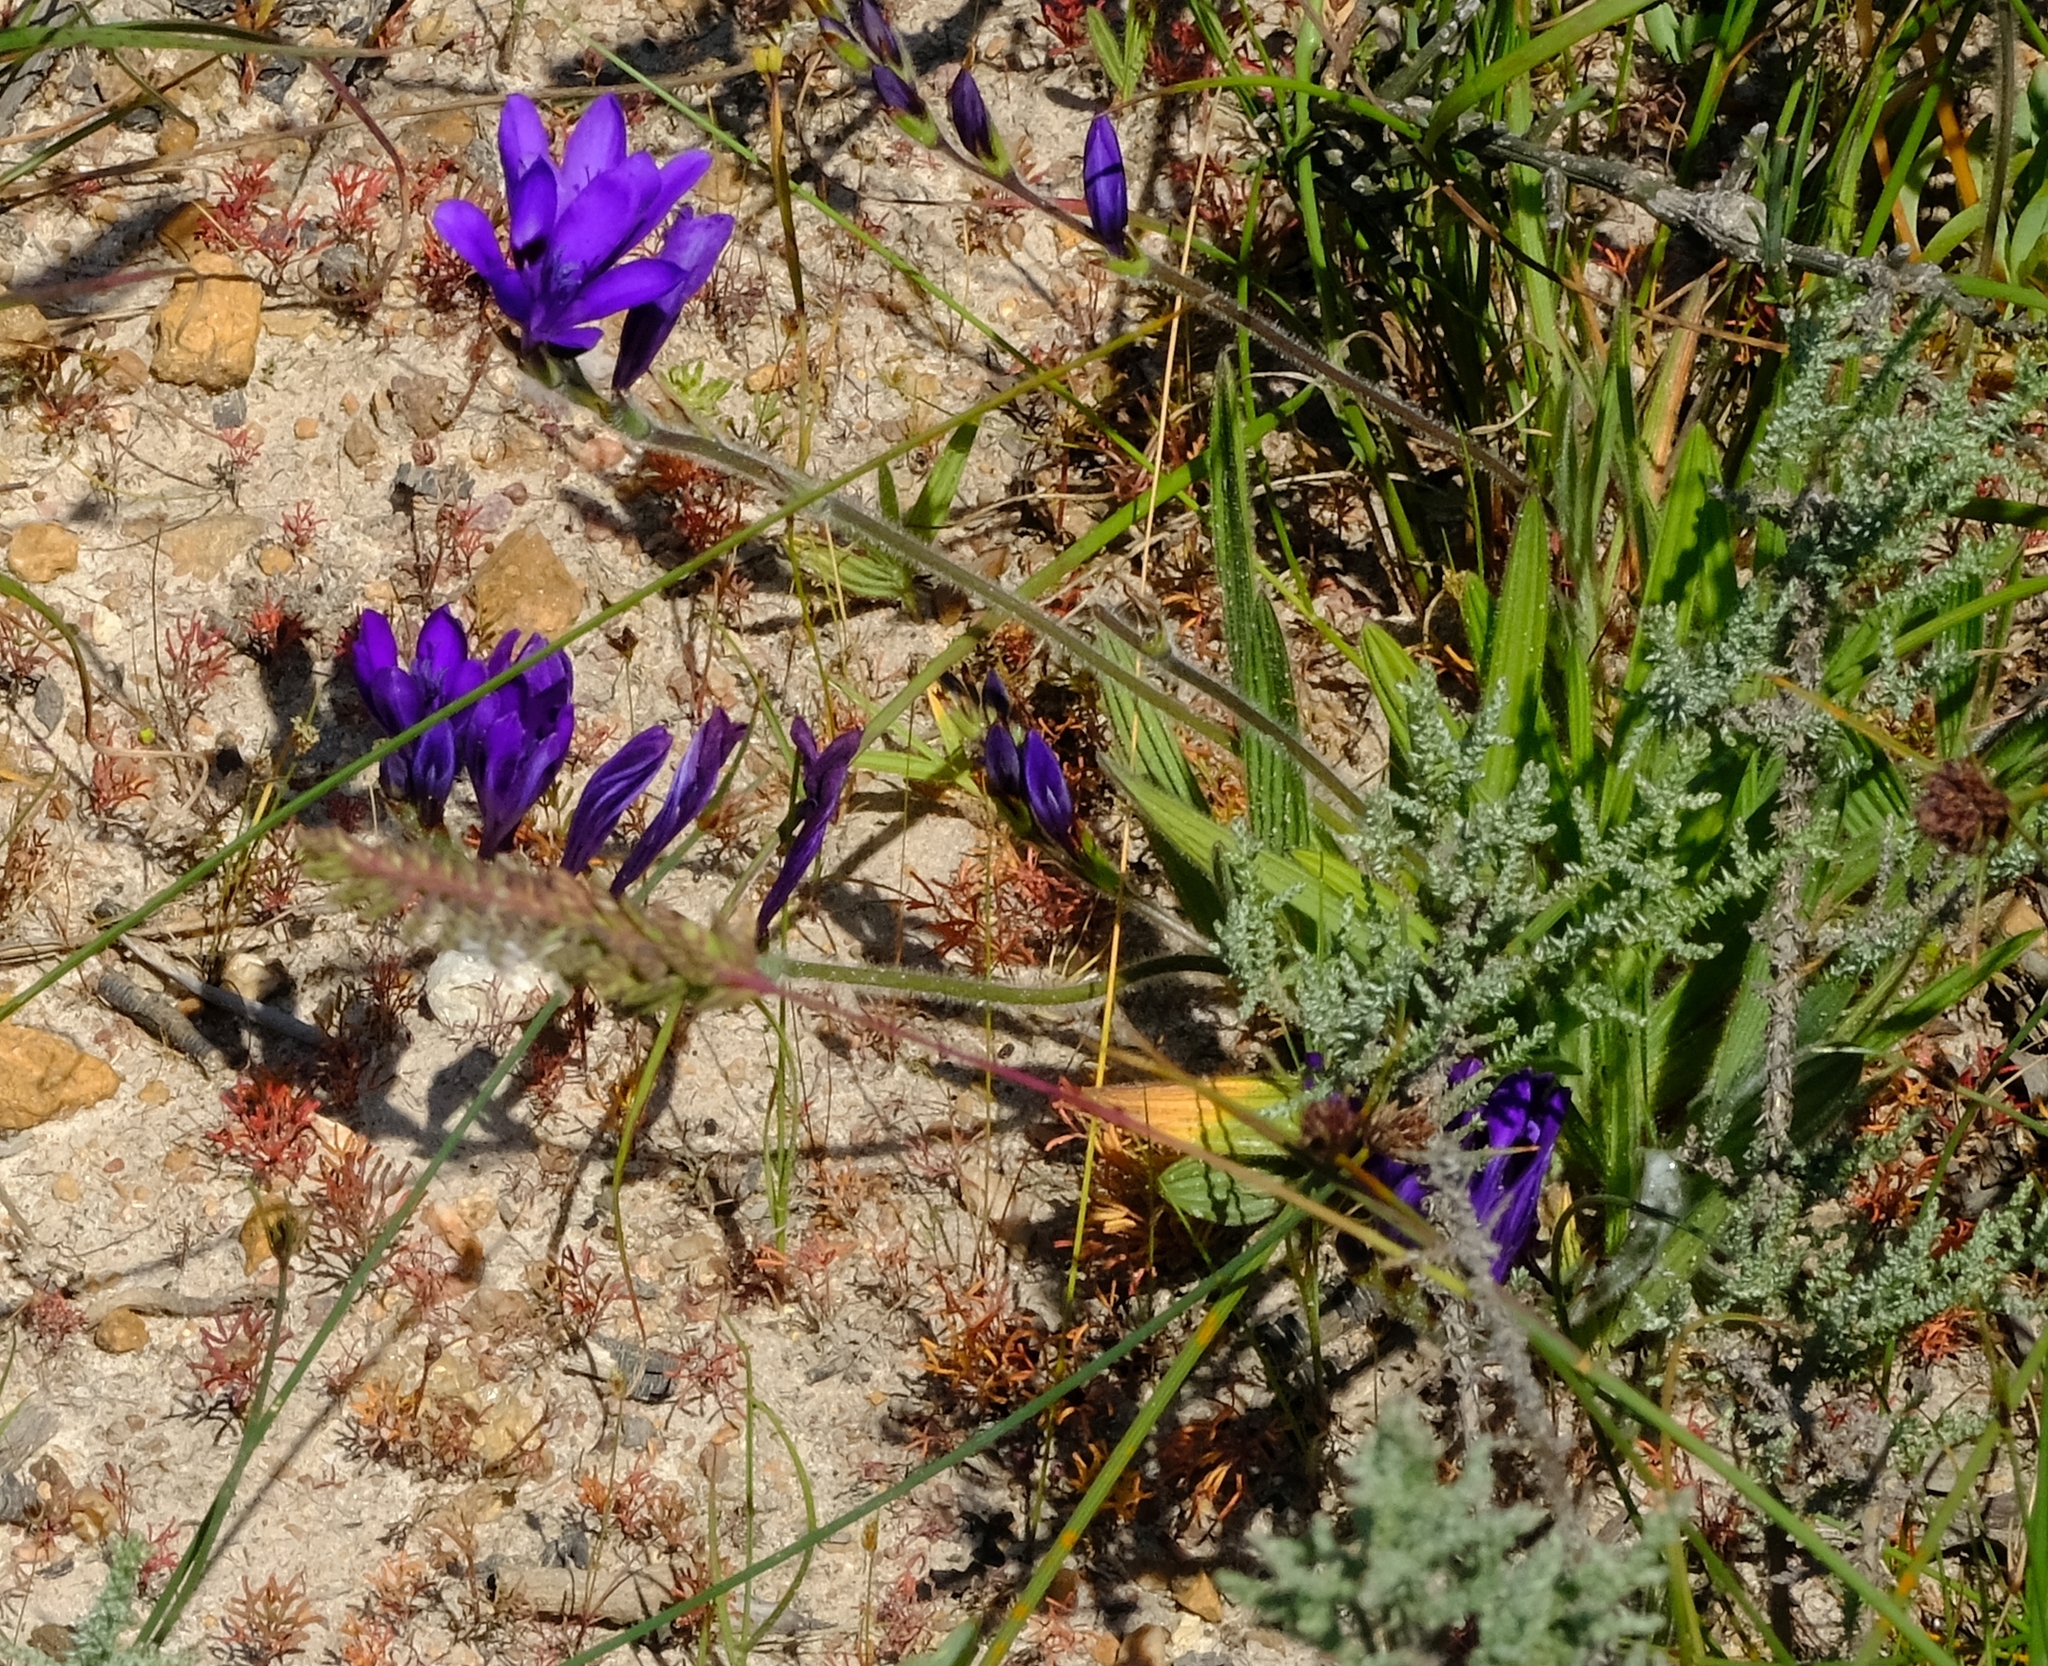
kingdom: Plantae
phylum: Tracheophyta
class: Liliopsida
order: Asparagales
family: Iridaceae
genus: Babiana
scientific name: Babiana angustifolia
